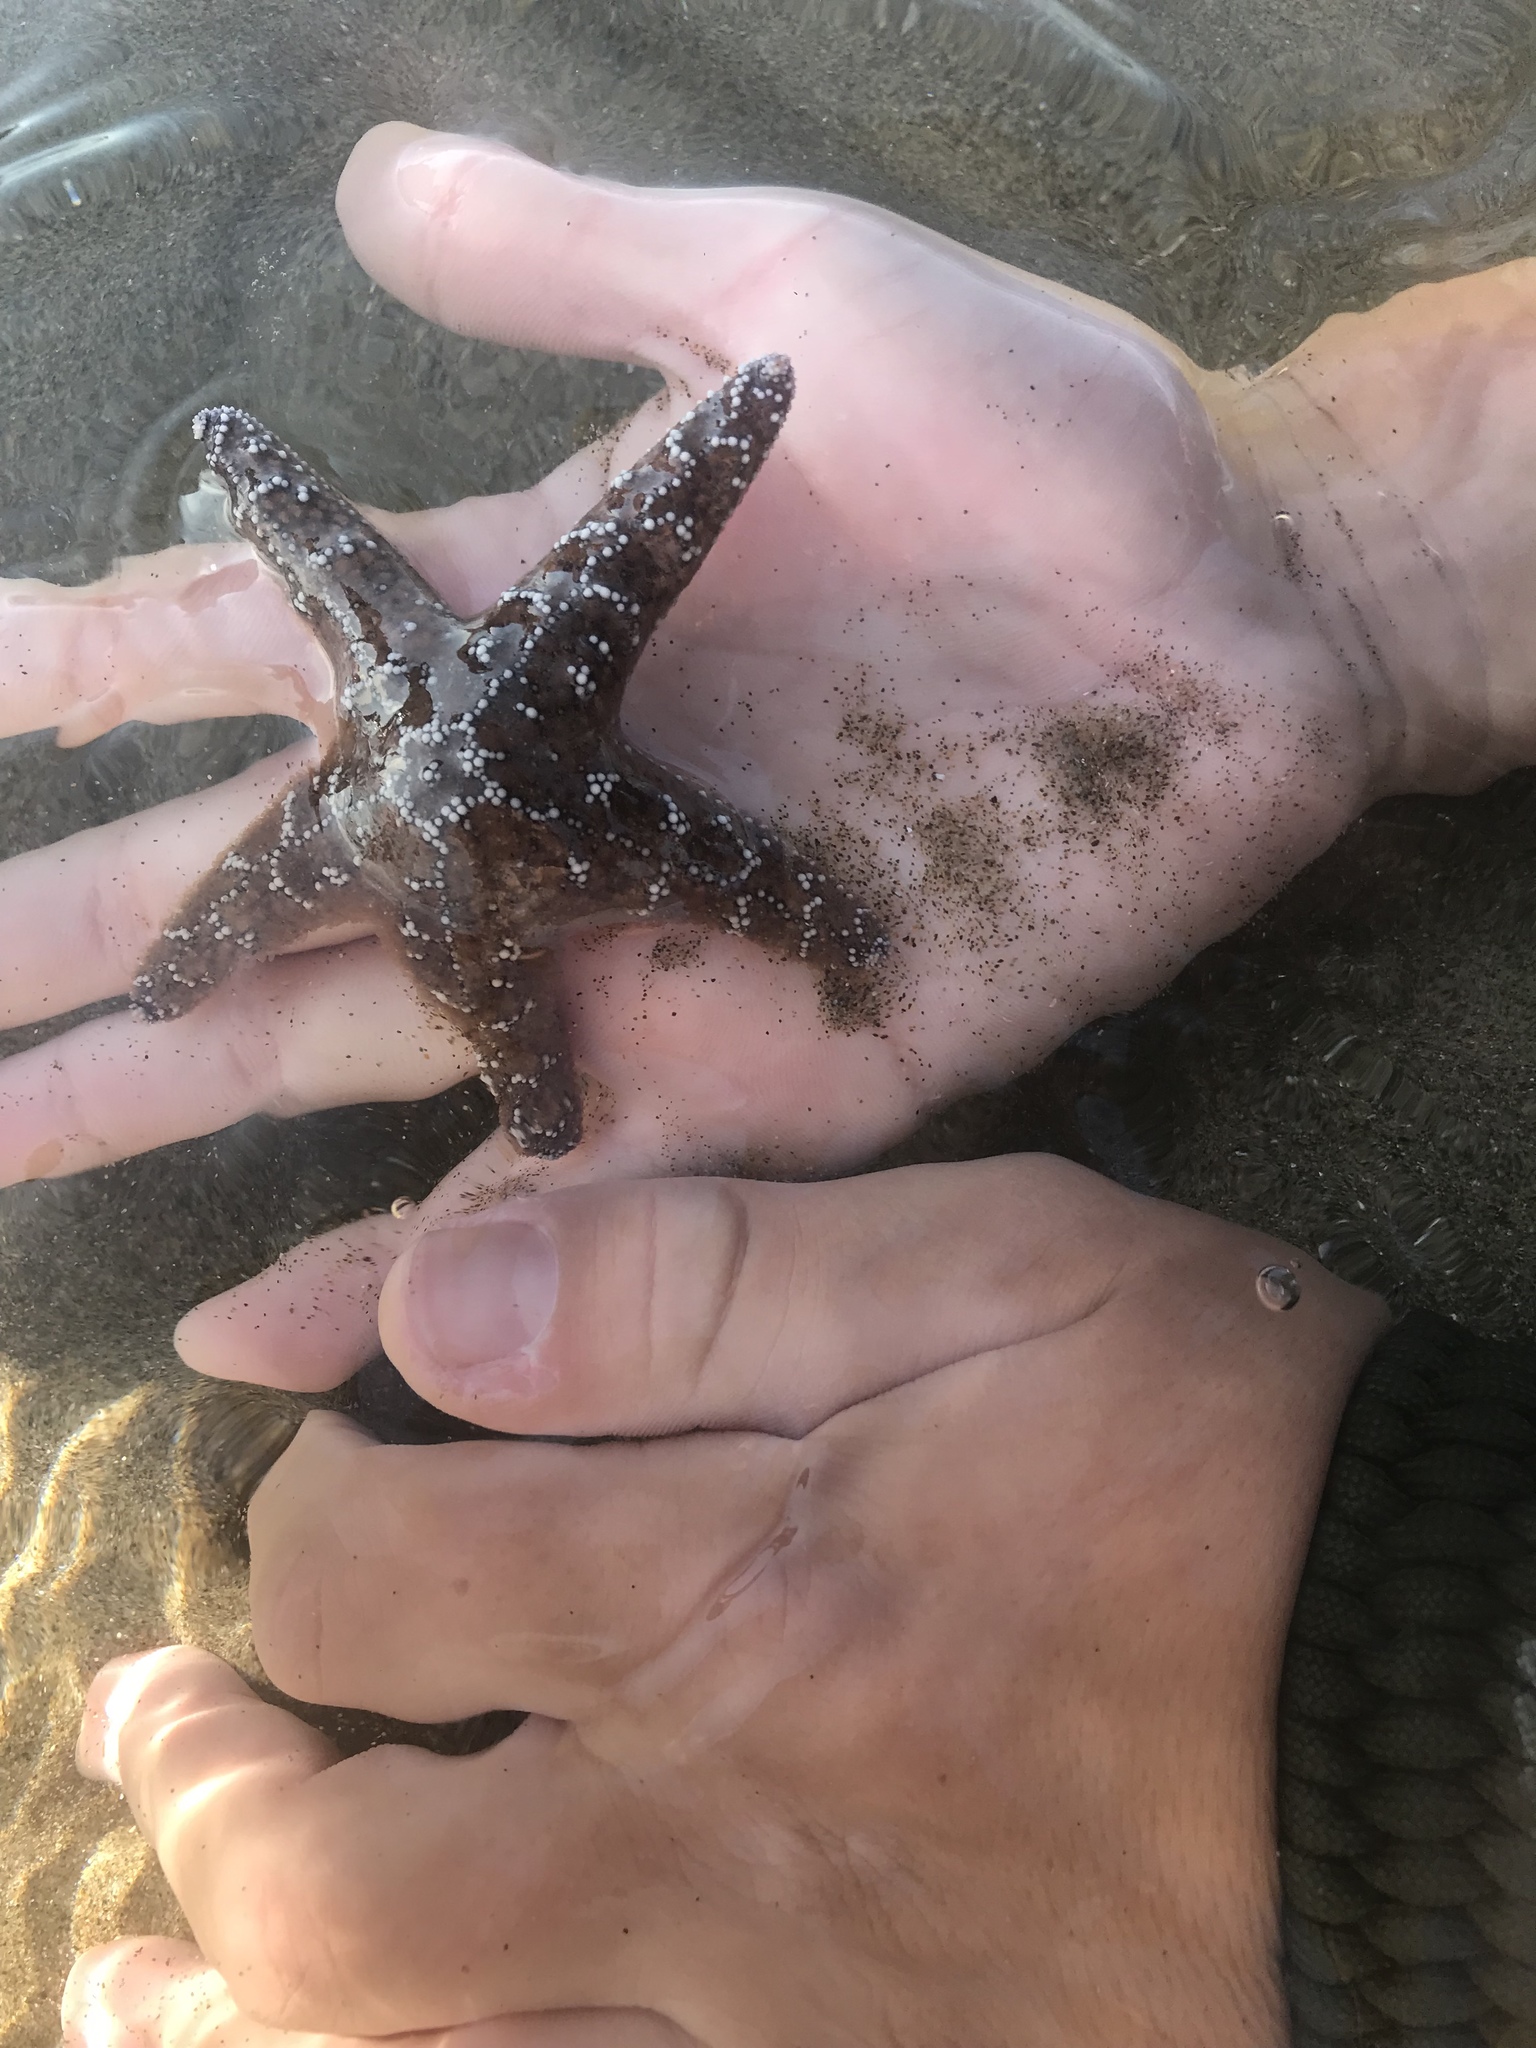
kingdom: Animalia
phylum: Echinodermata
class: Asteroidea
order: Forcipulatida
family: Asteriidae
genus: Pisaster
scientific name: Pisaster ochraceus
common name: Ochre stars
